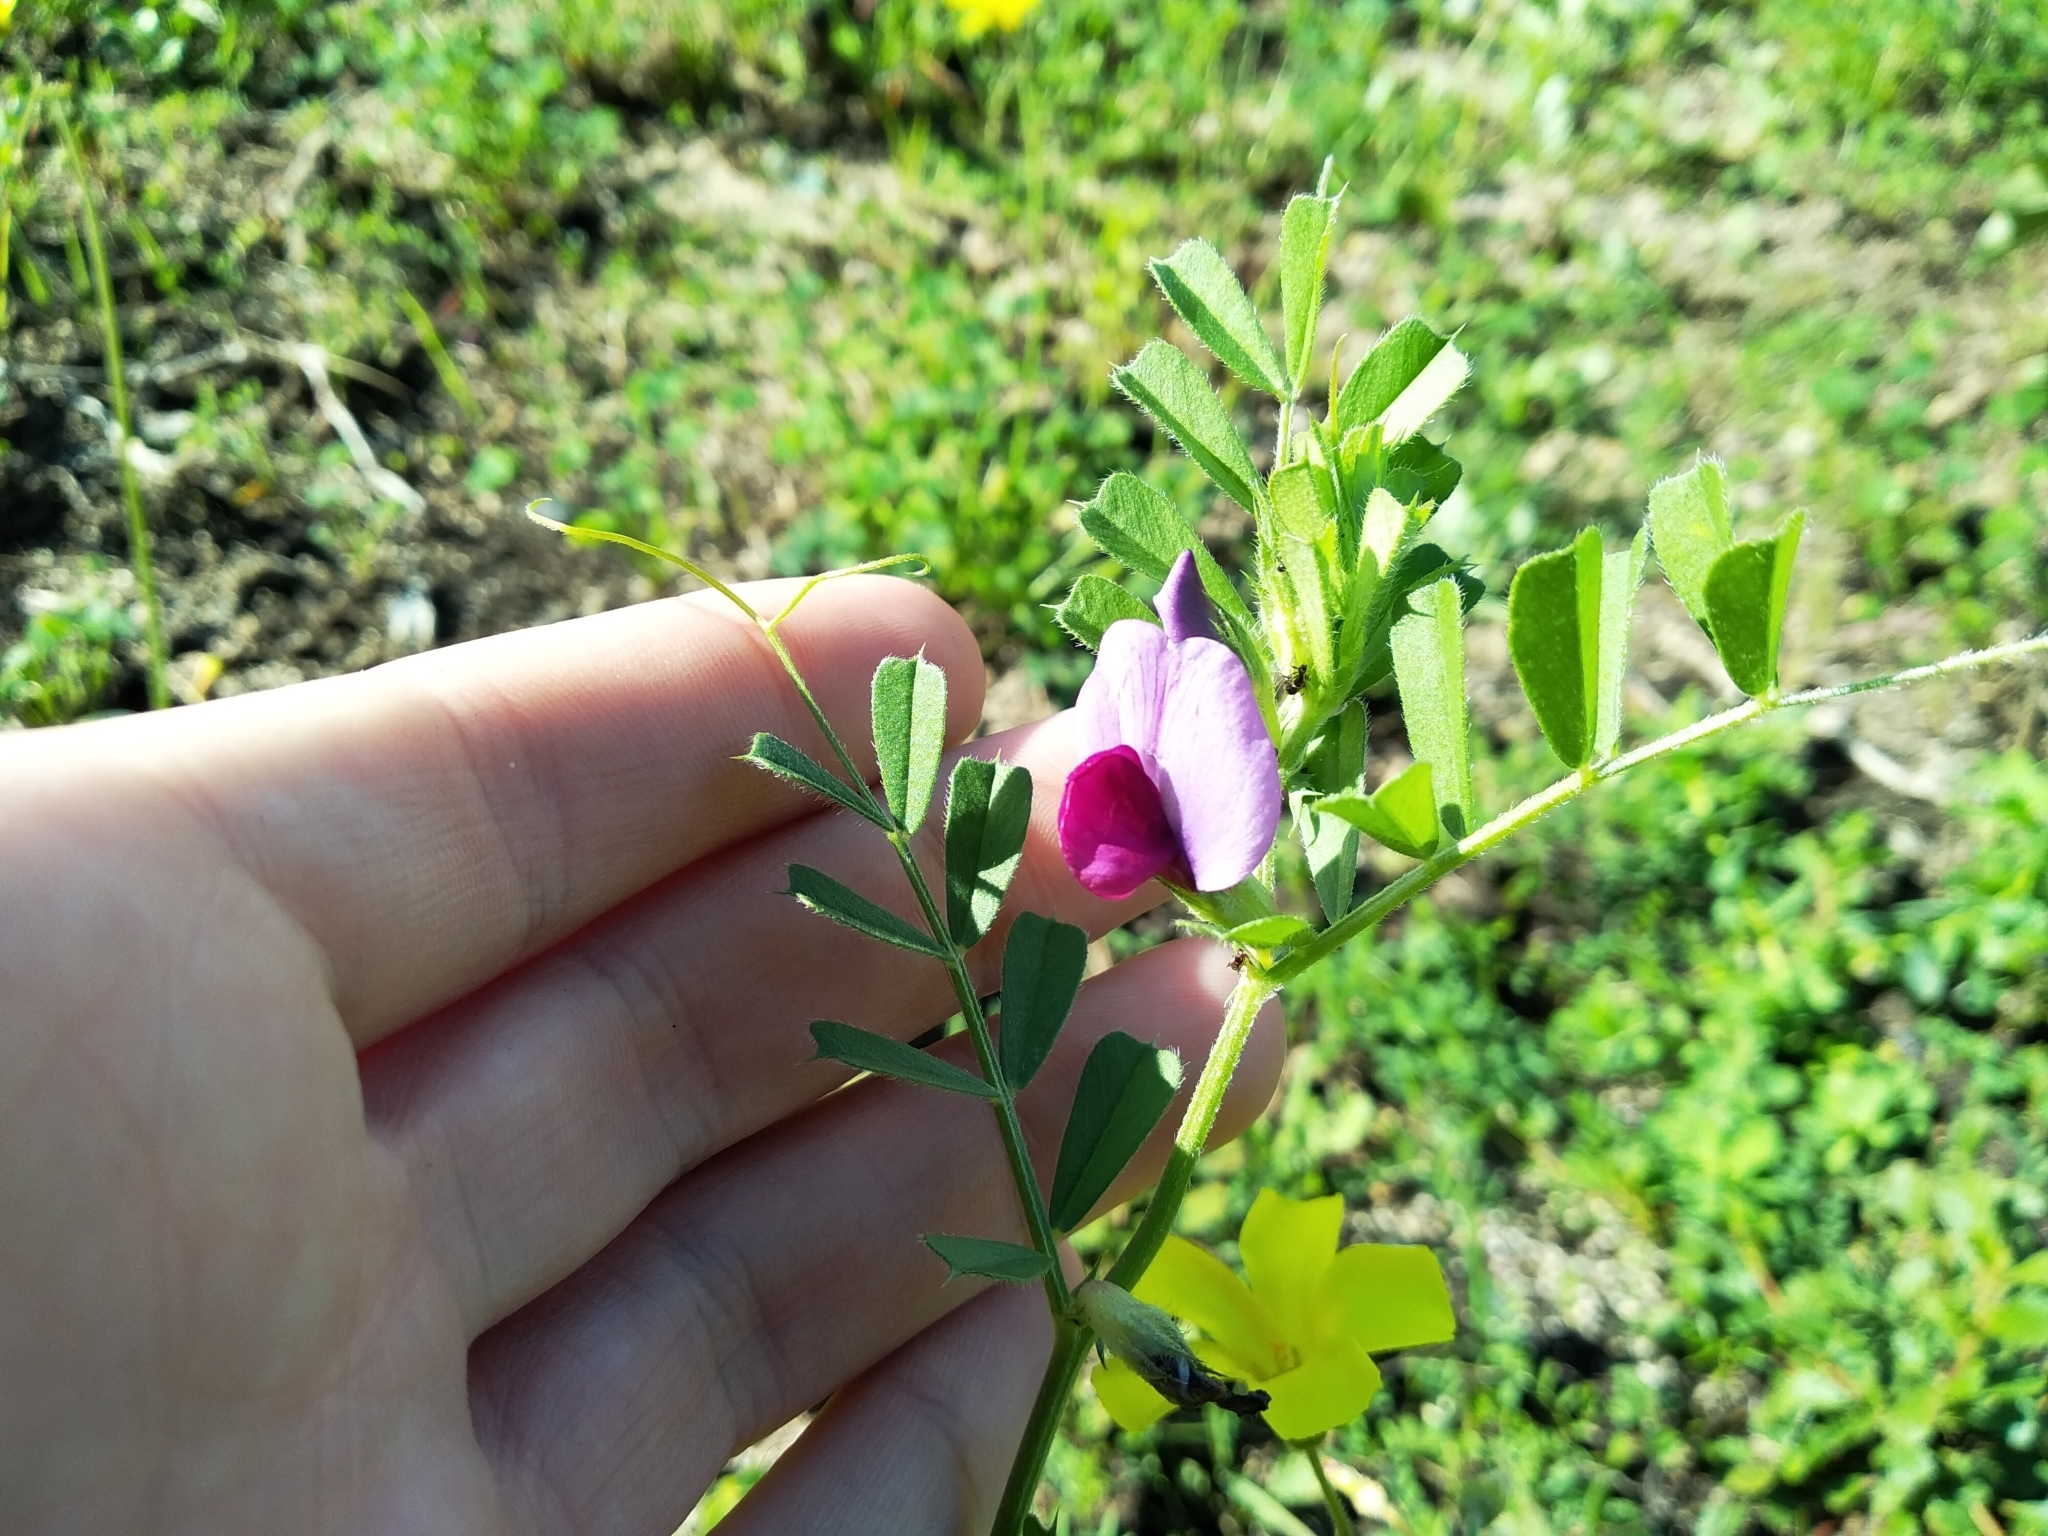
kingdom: Plantae
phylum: Tracheophyta
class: Magnoliopsida
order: Fabales
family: Fabaceae
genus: Vicia
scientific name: Vicia sativa
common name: Garden vetch
